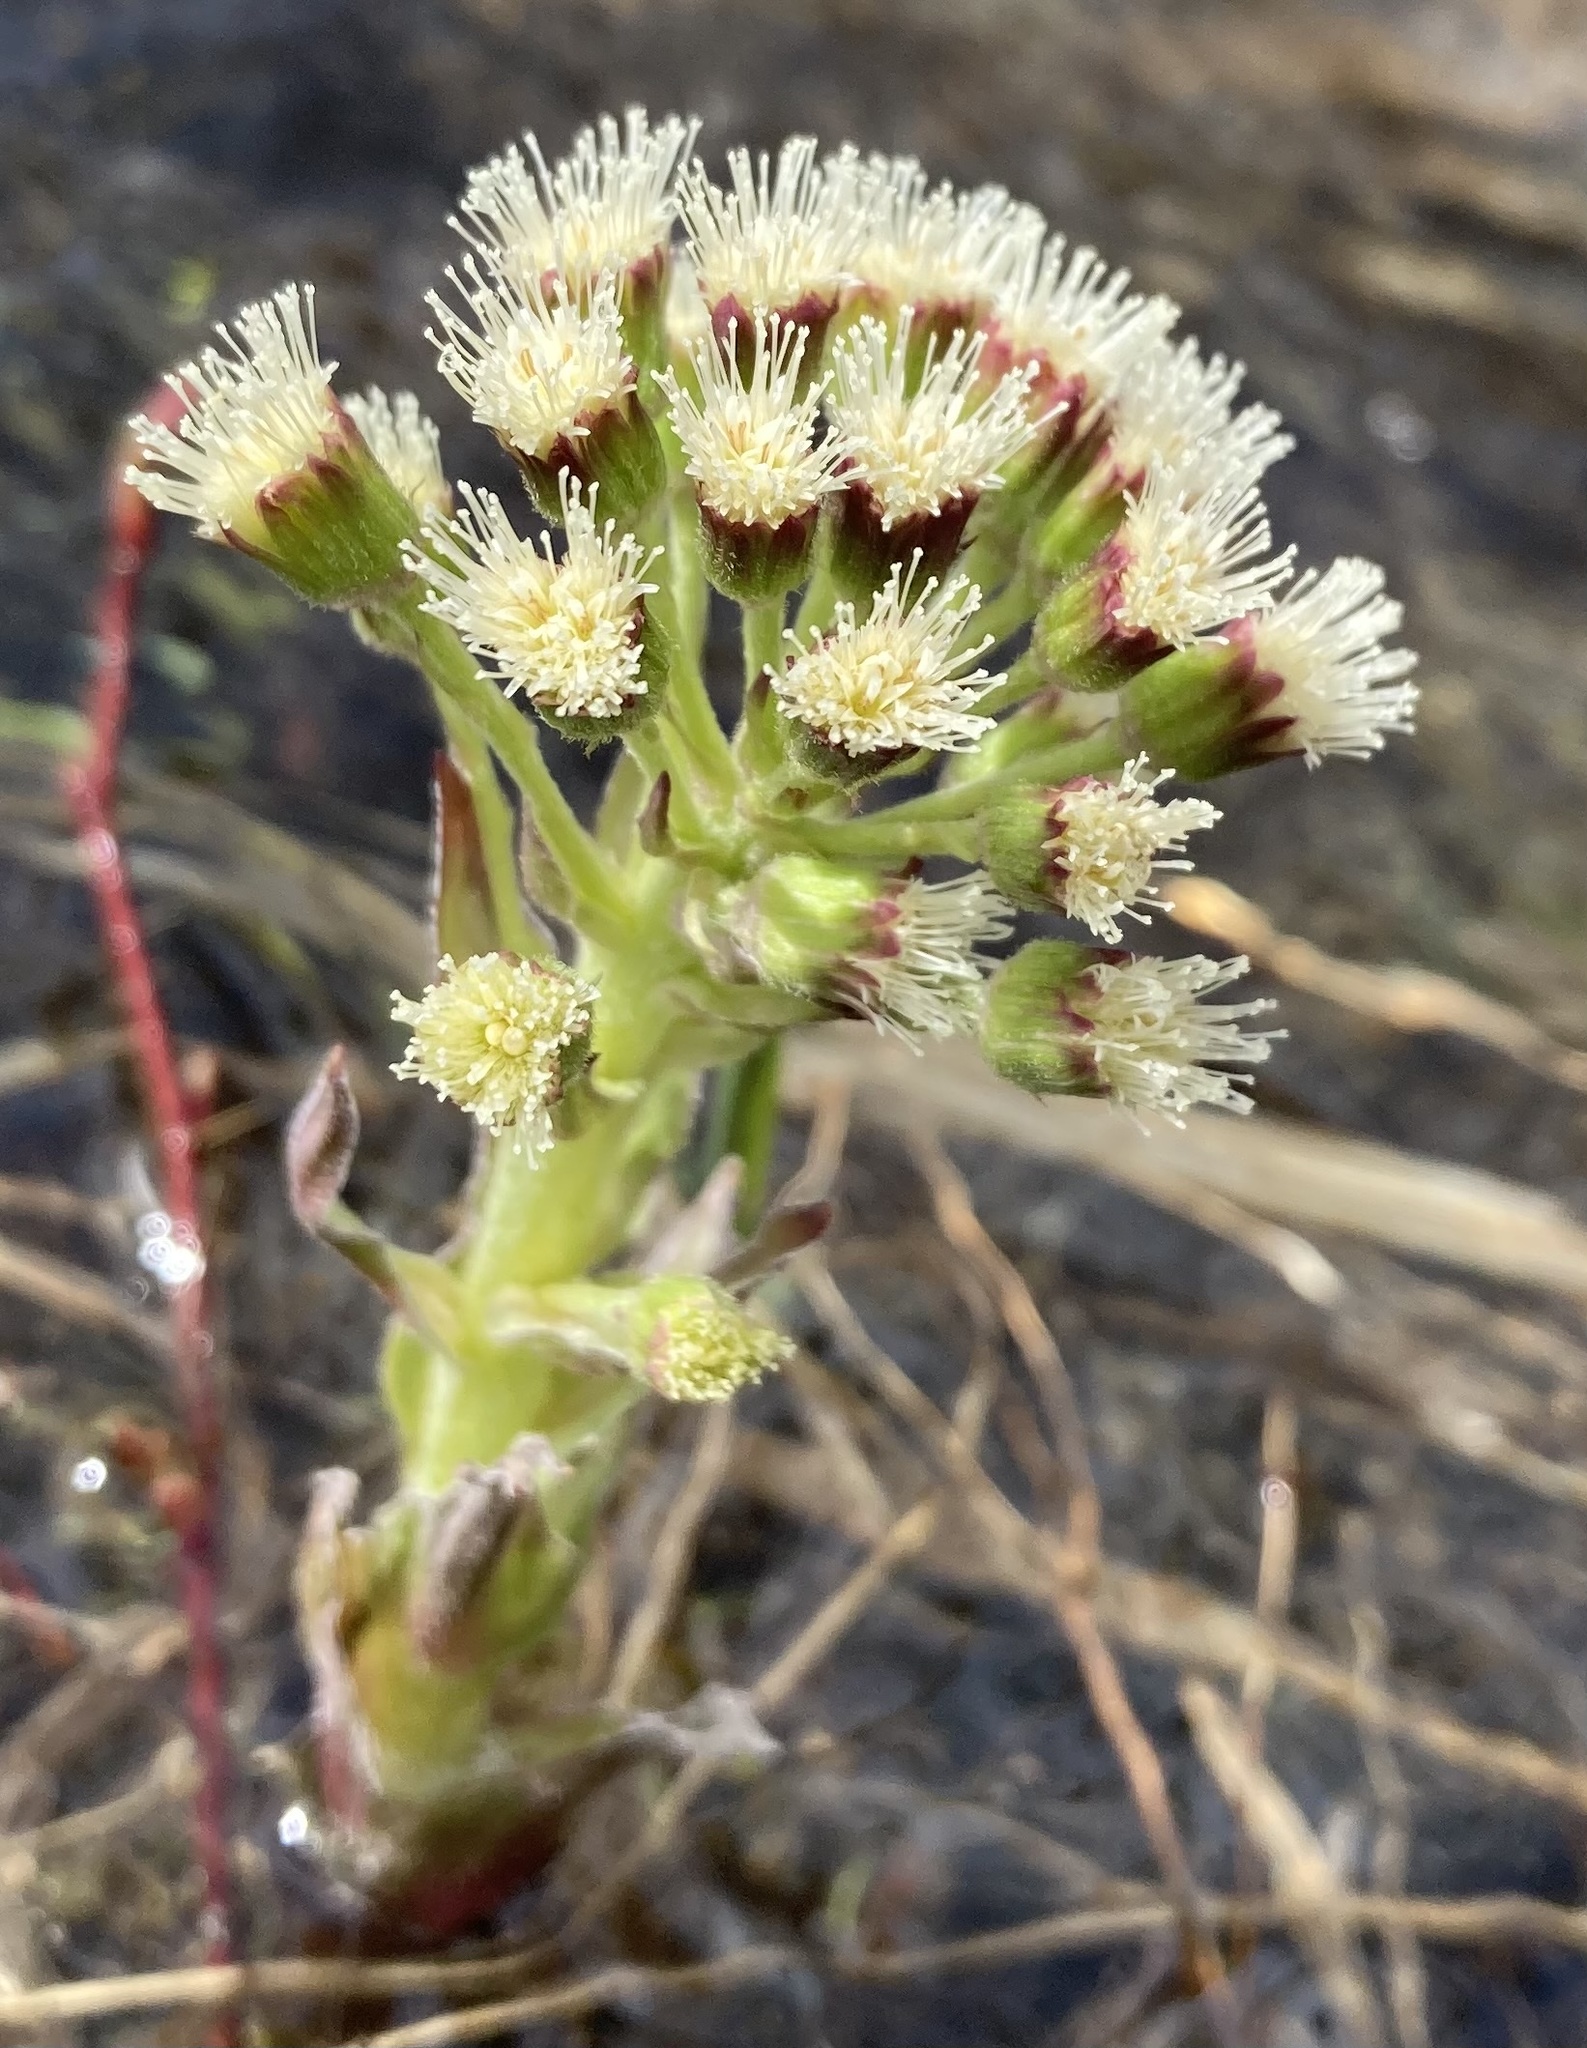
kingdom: Plantae
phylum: Tracheophyta
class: Magnoliopsida
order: Asterales
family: Asteraceae
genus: Petasites
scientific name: Petasites frigidus
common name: Arctic butterbur
